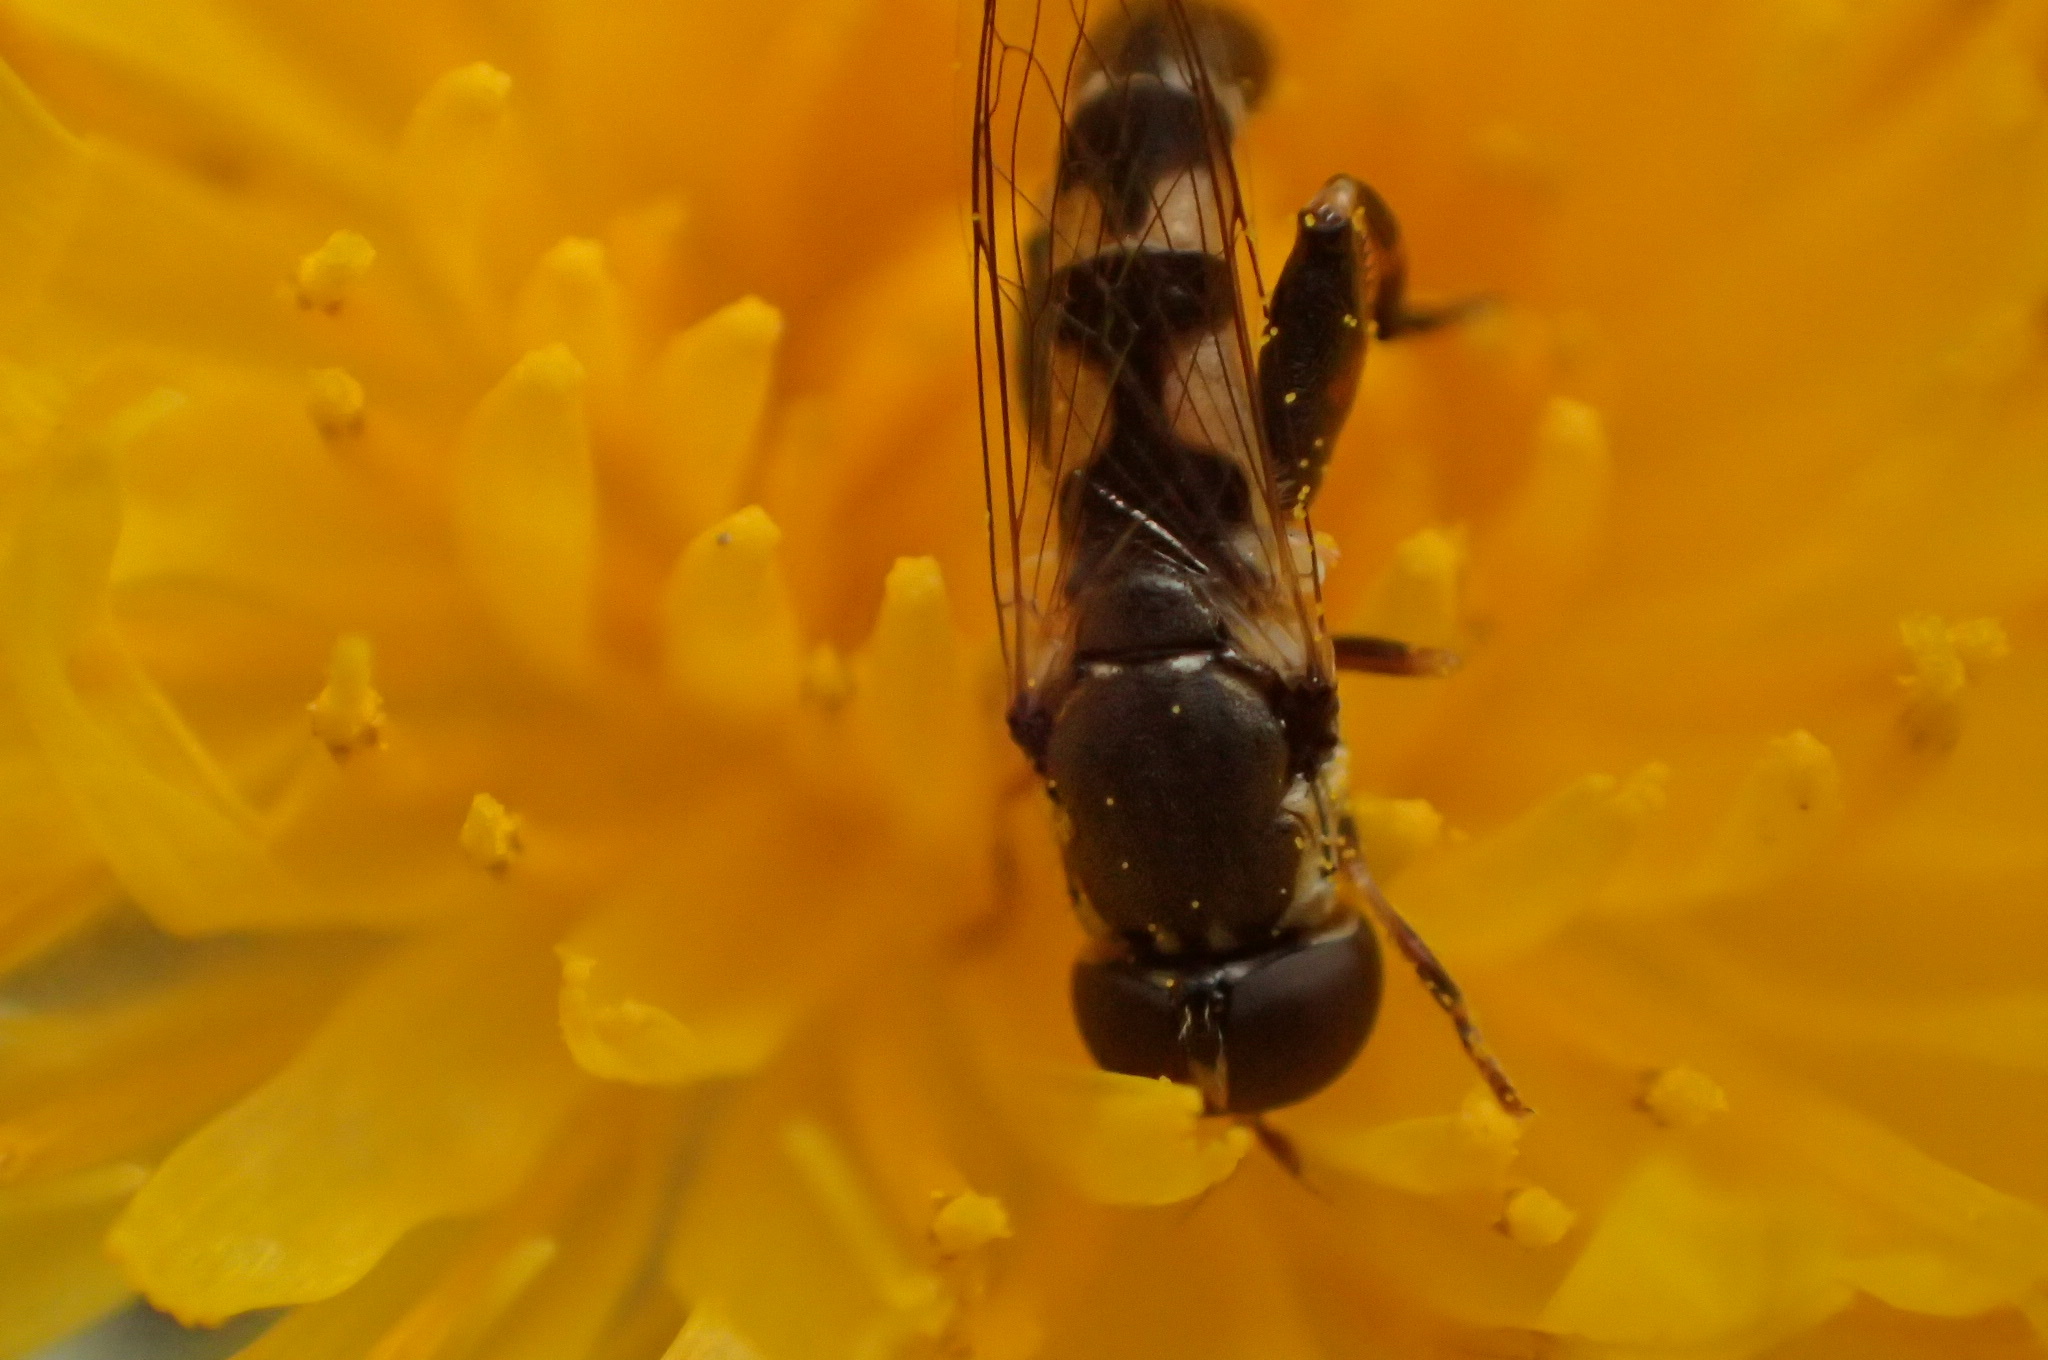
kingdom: Animalia
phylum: Arthropoda
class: Insecta
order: Diptera
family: Syrphidae
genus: Syritta
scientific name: Syritta pipiens
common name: Hover fly
